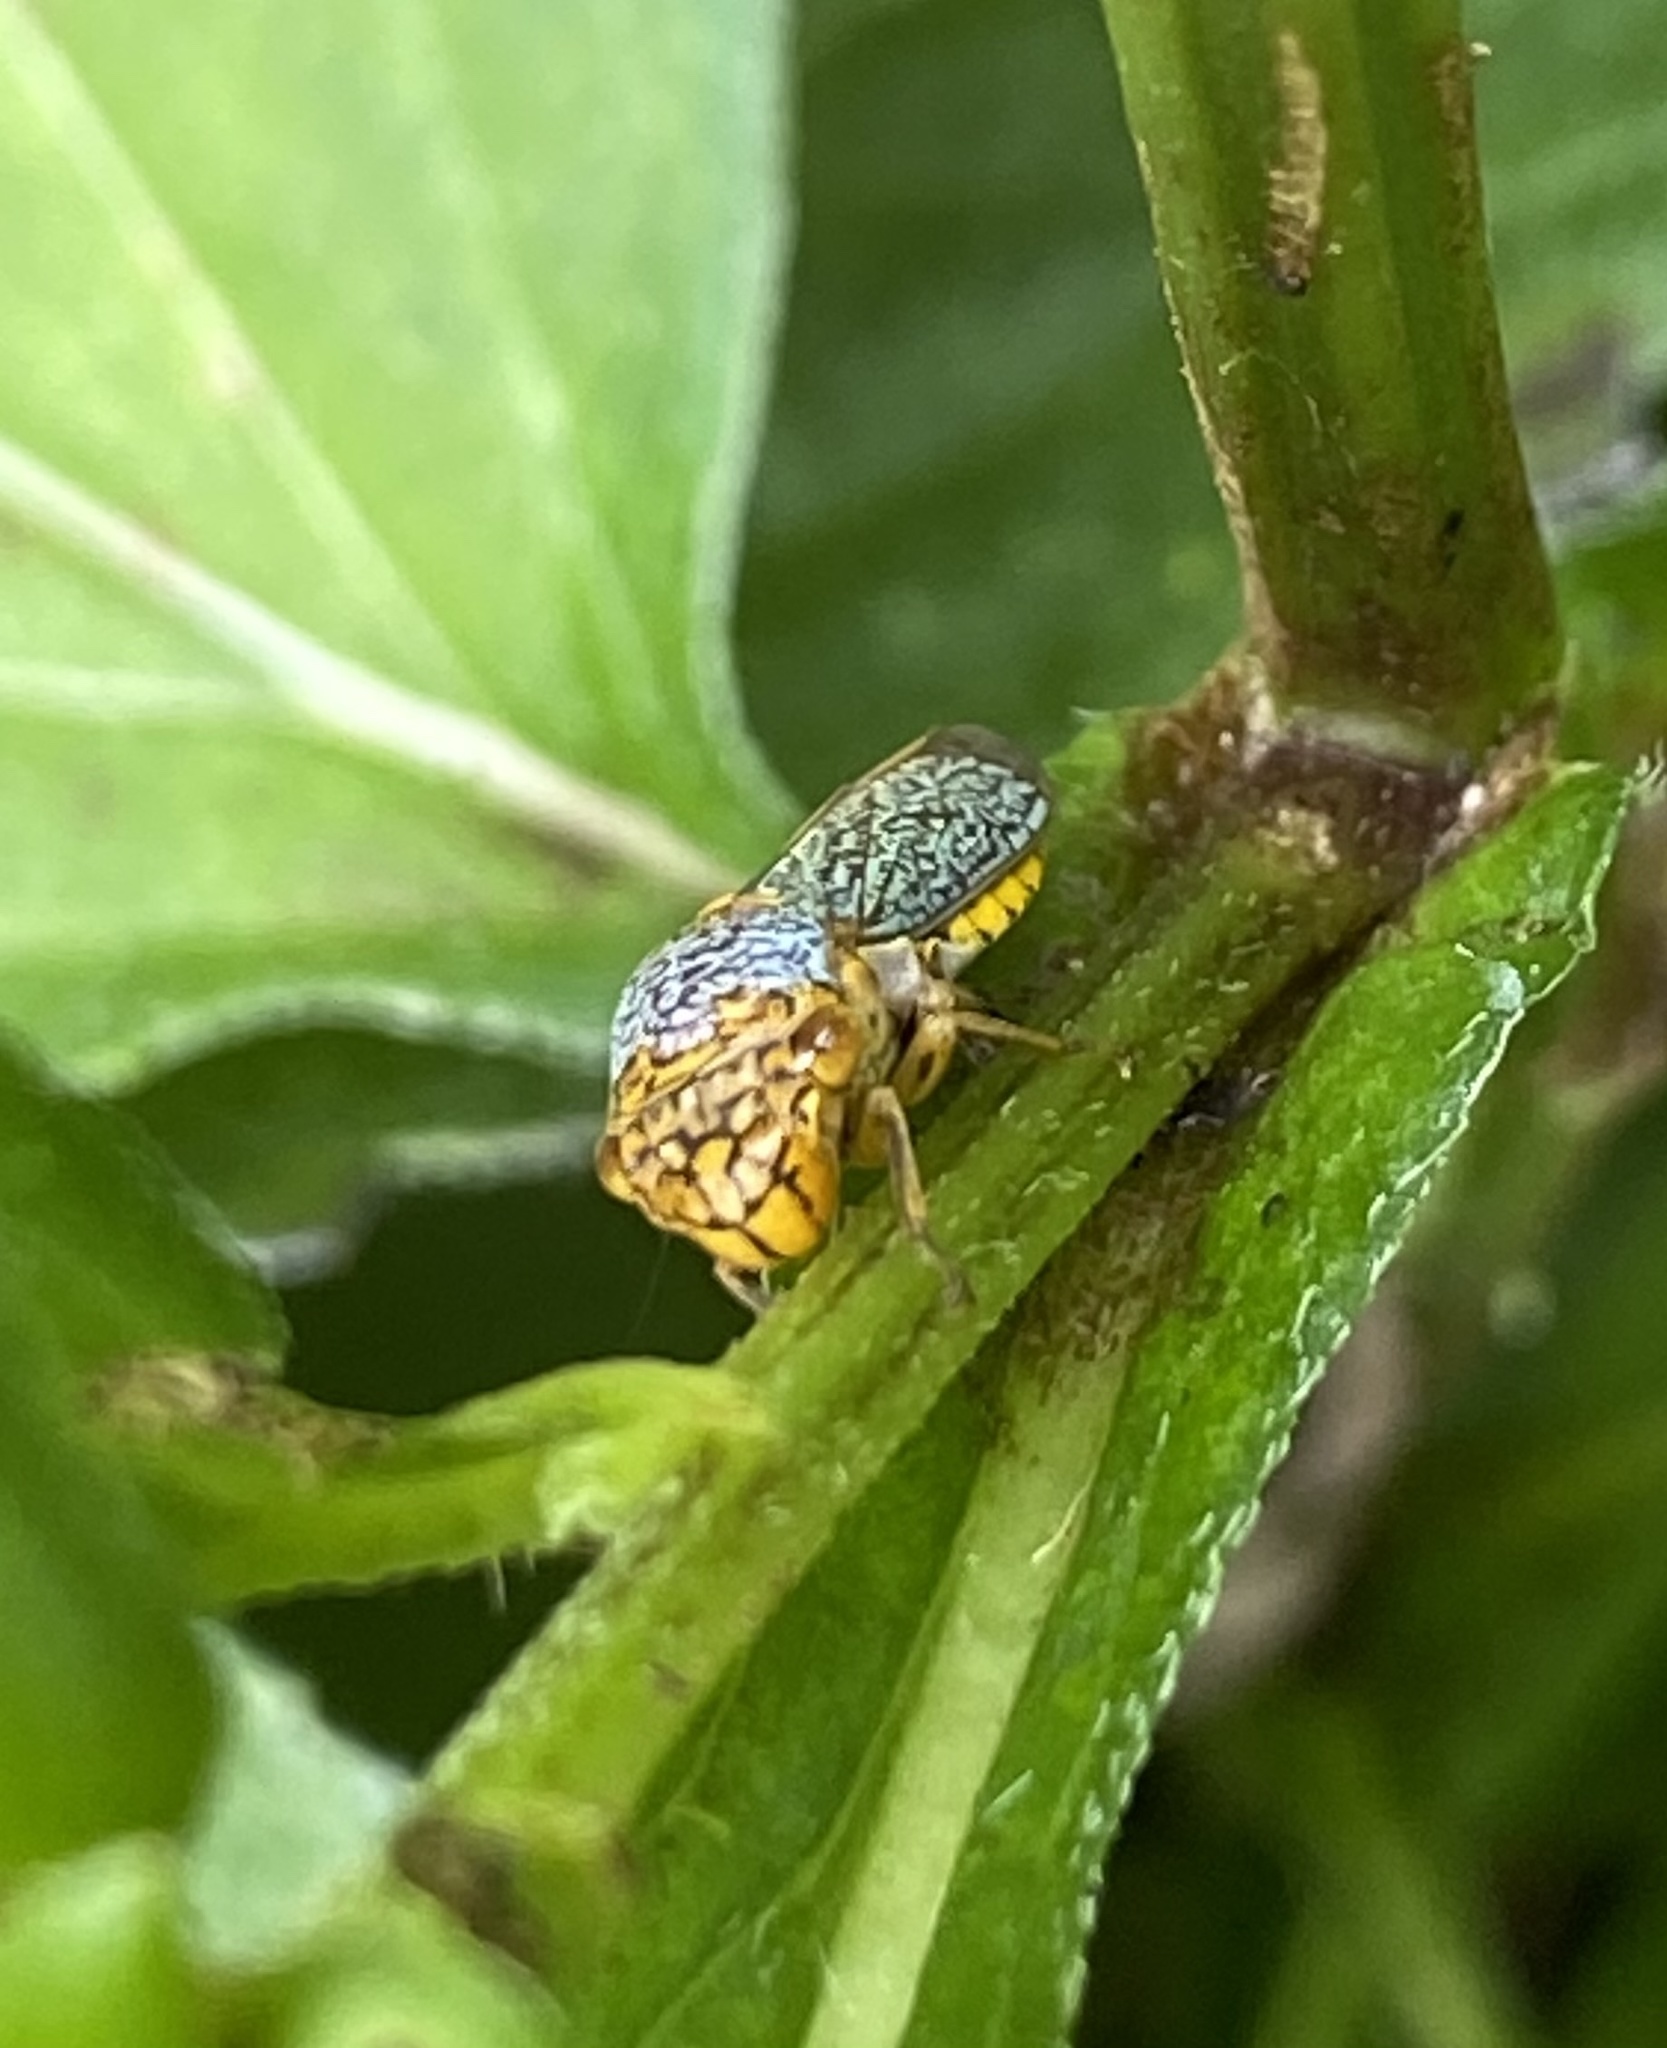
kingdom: Animalia
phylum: Arthropoda
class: Insecta
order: Hemiptera
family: Cicadellidae
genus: Oncometopia
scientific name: Oncometopia orbona
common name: Broad-headed sharpshooter
